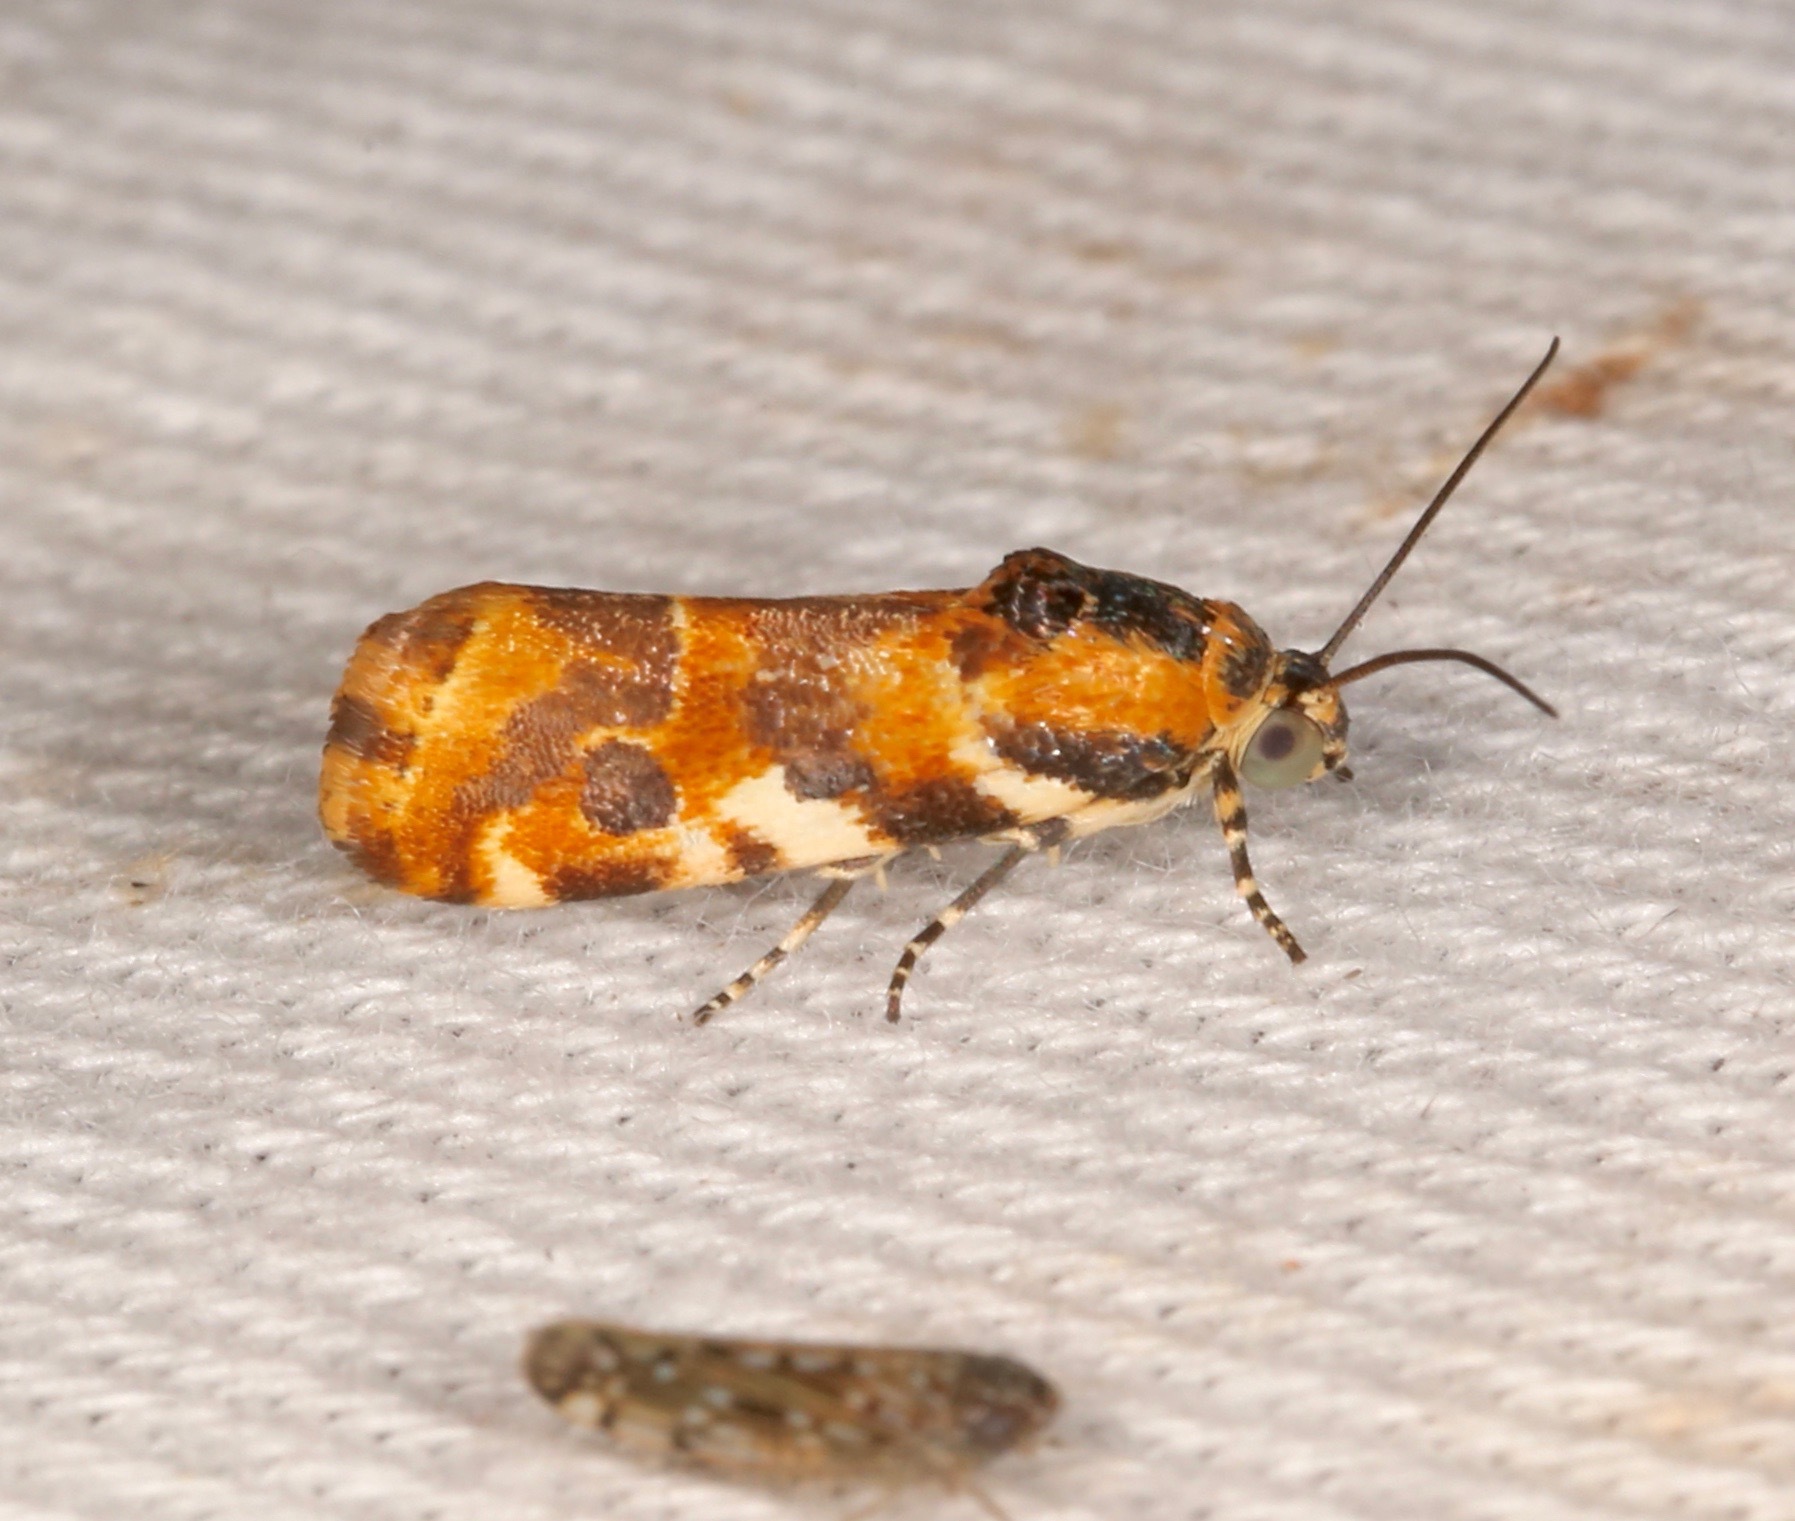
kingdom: Animalia
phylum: Arthropoda
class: Insecta
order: Lepidoptera
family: Noctuidae
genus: Spragueia
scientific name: Spragueia jaguaralis
